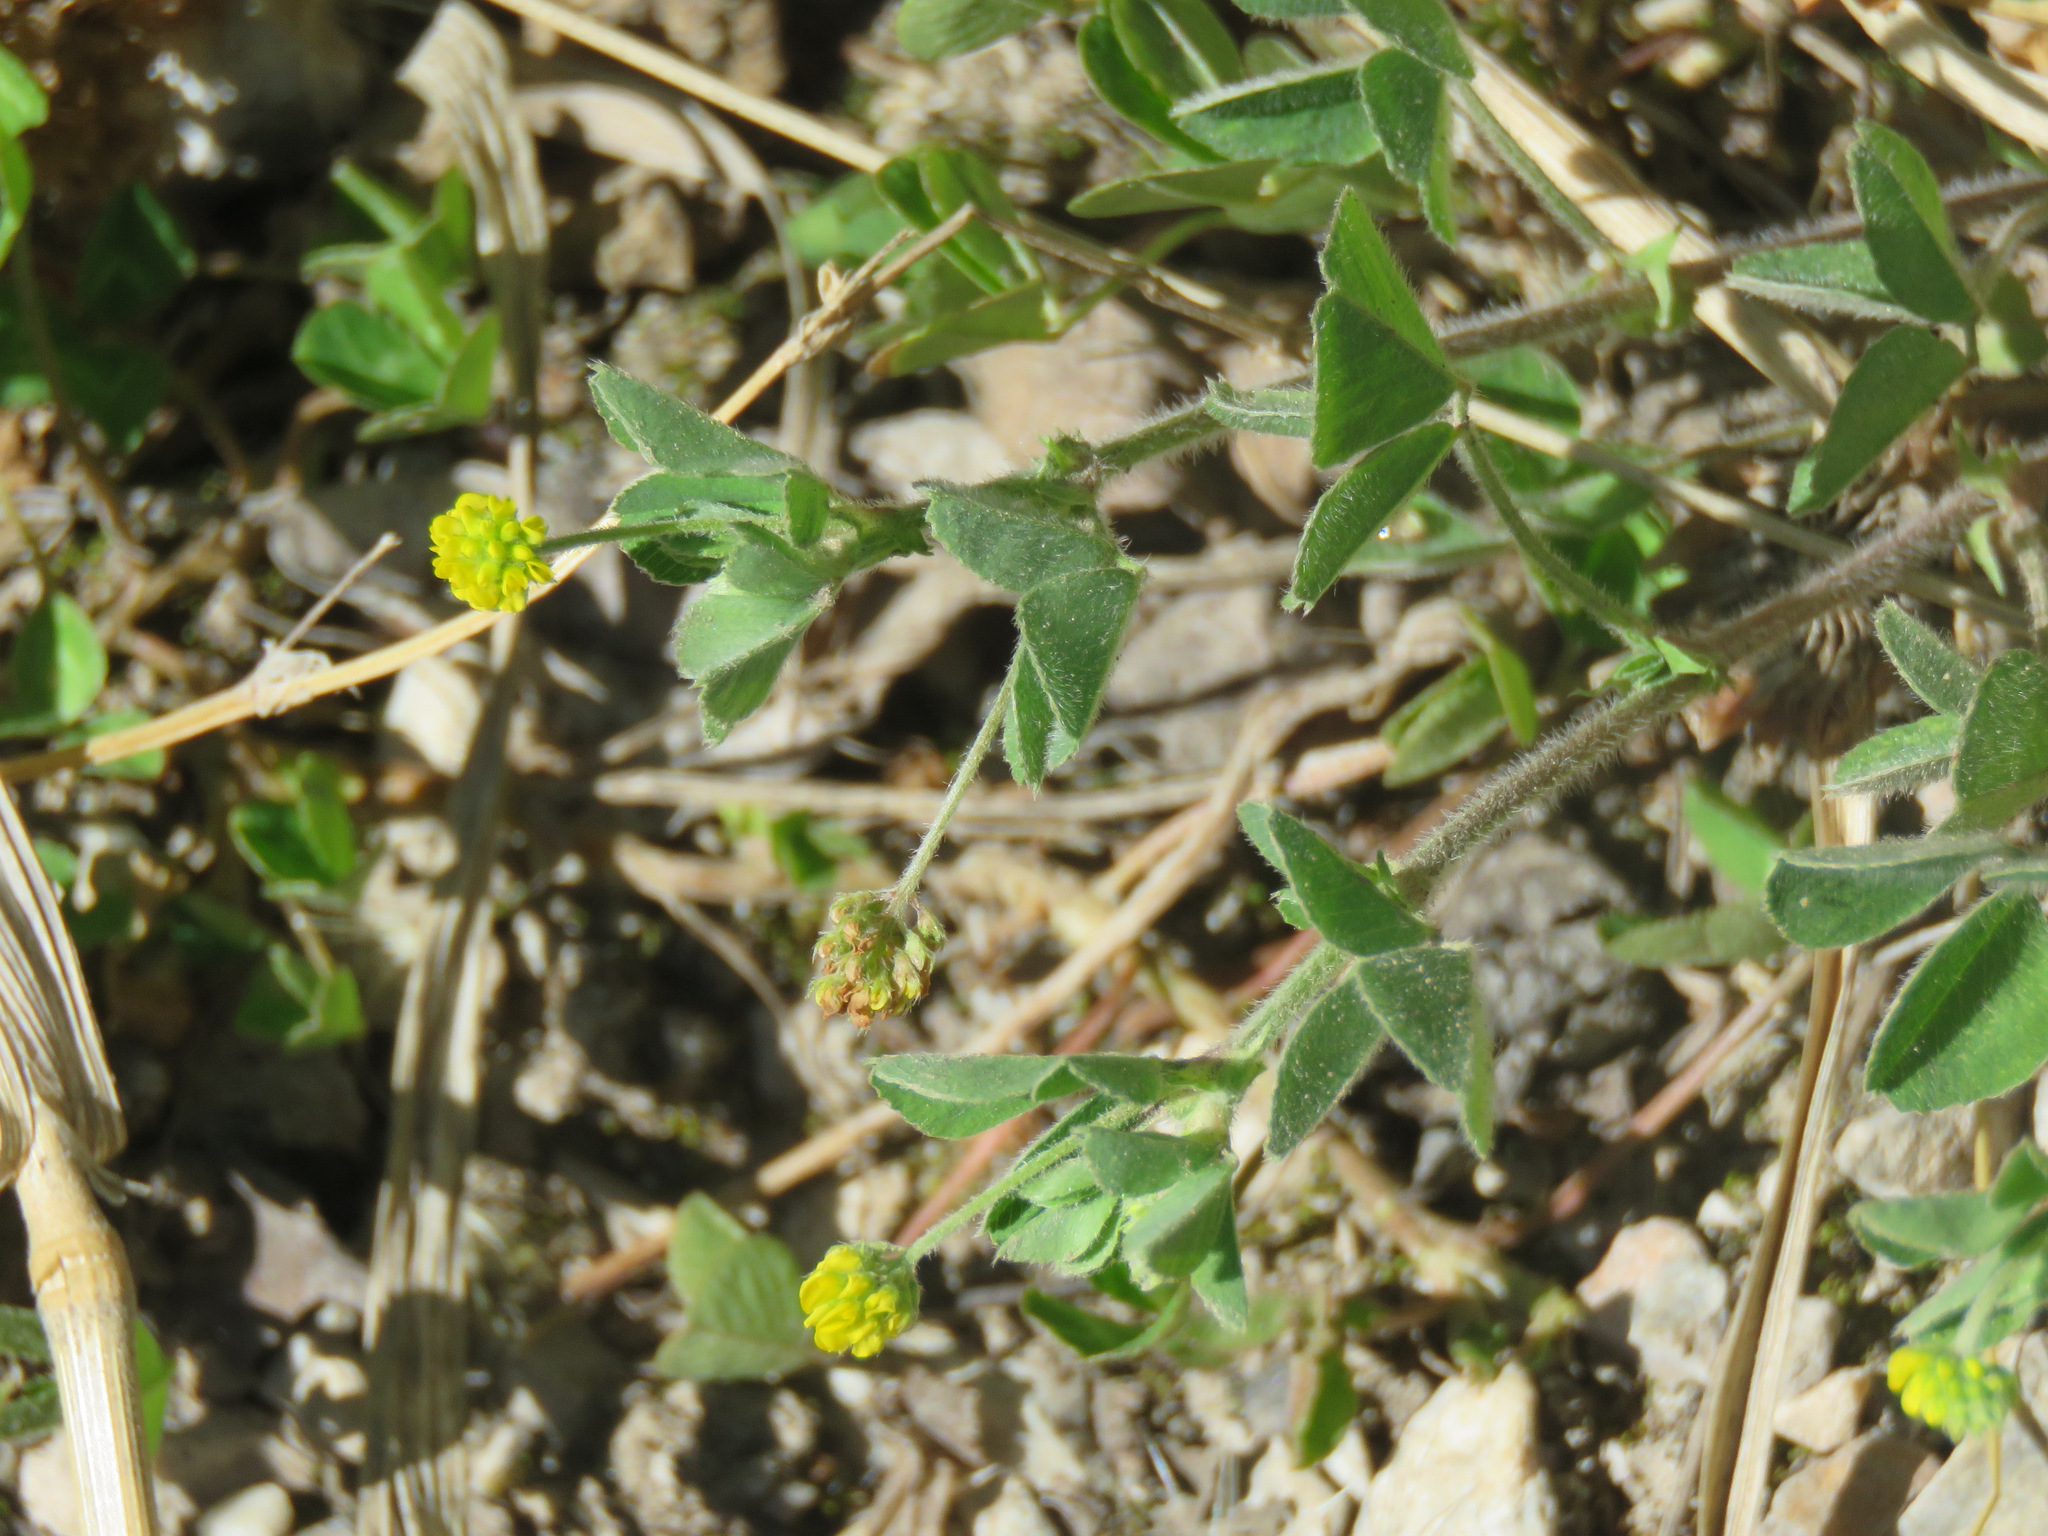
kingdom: Plantae
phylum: Tracheophyta
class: Magnoliopsida
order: Fabales
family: Fabaceae
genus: Medicago
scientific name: Medicago lupulina
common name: Black medick
